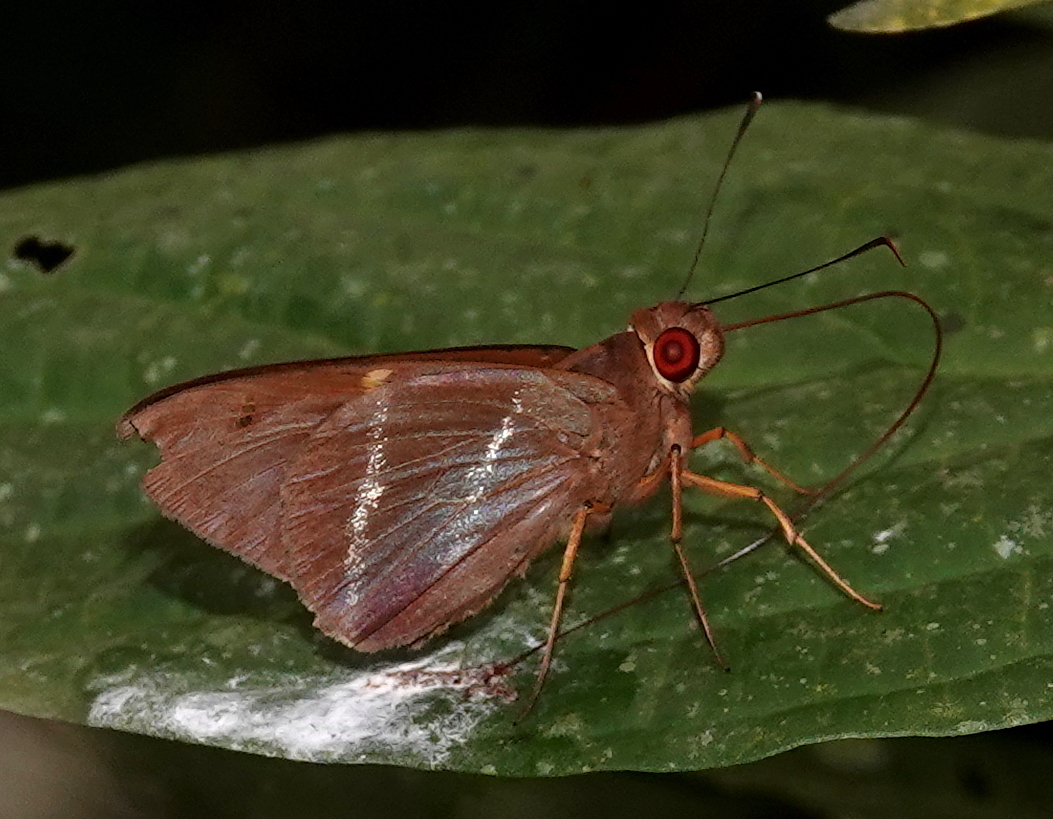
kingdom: Animalia
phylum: Arthropoda
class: Insecta
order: Lepidoptera
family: Hesperiidae
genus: Lycas
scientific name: Lycas godart
